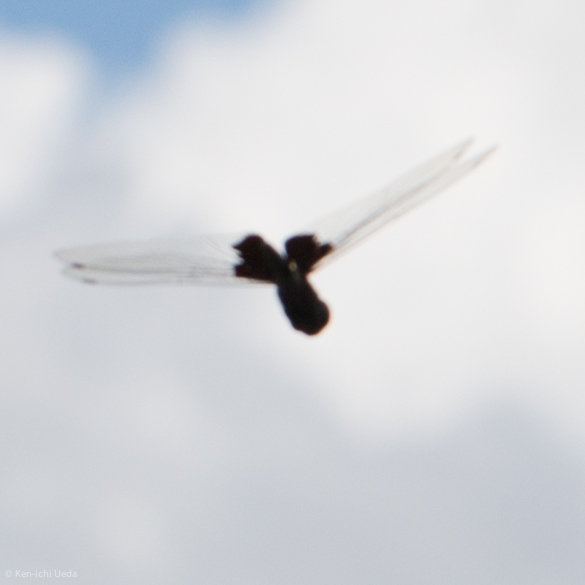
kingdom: Animalia
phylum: Arthropoda
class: Insecta
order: Odonata
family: Libellulidae
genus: Tramea
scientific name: Tramea lacerata
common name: Black saddlebags
